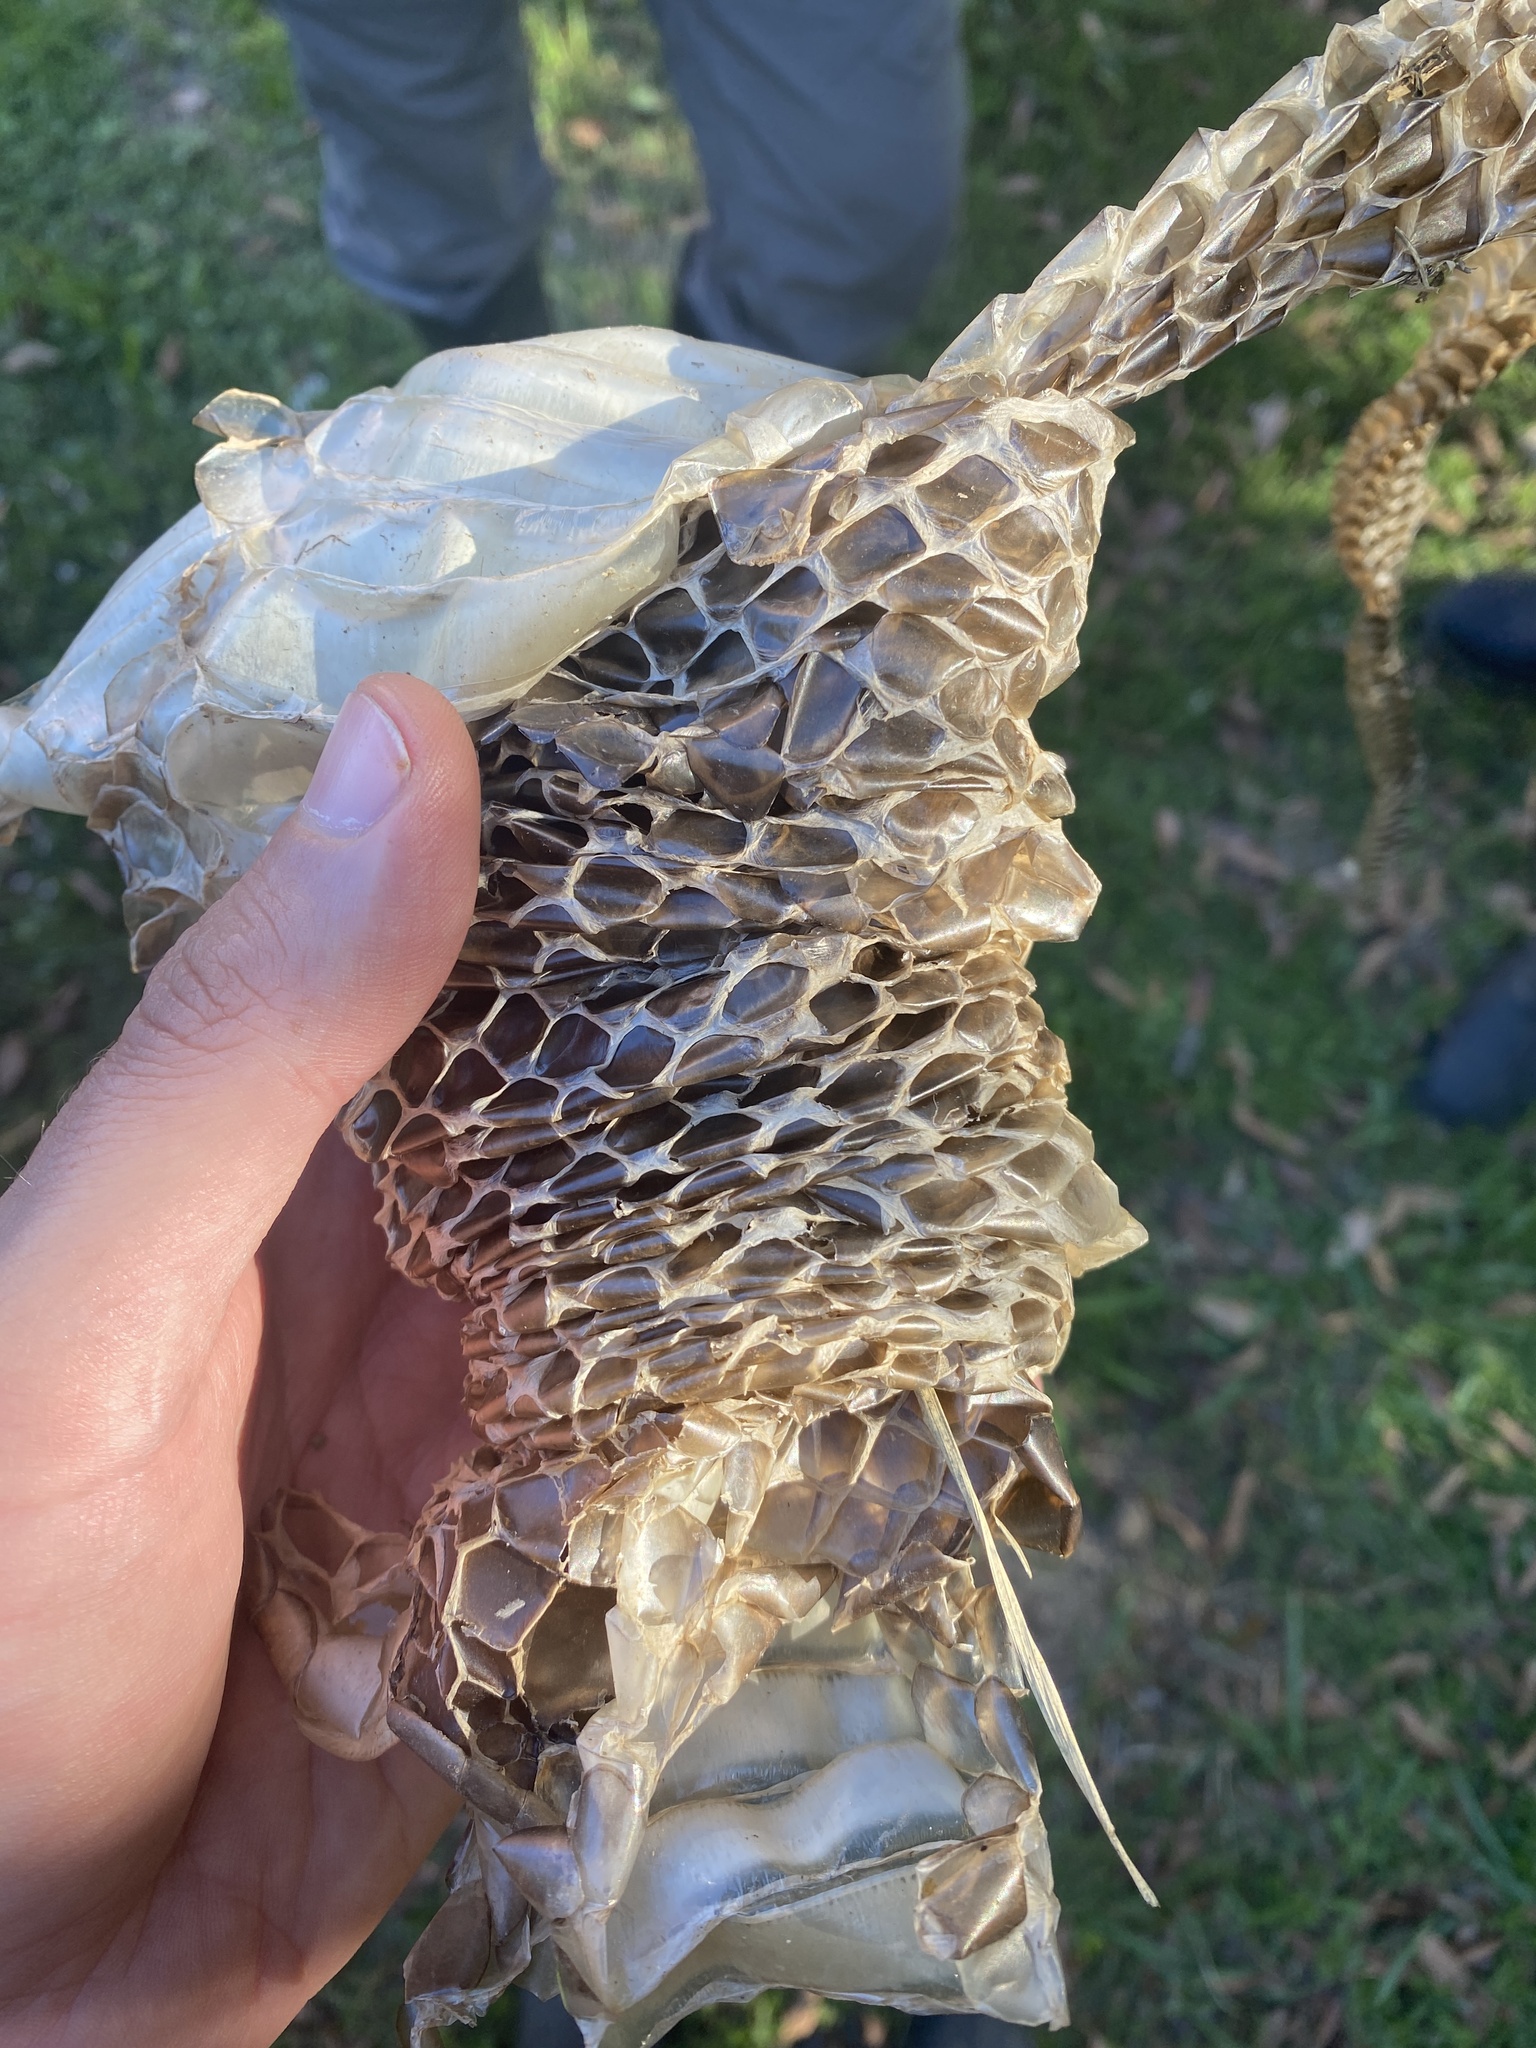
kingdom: Animalia
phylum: Chordata
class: Squamata
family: Colubridae
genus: Hydrodynastes
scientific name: Hydrodynastes gigas
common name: False water cobra
